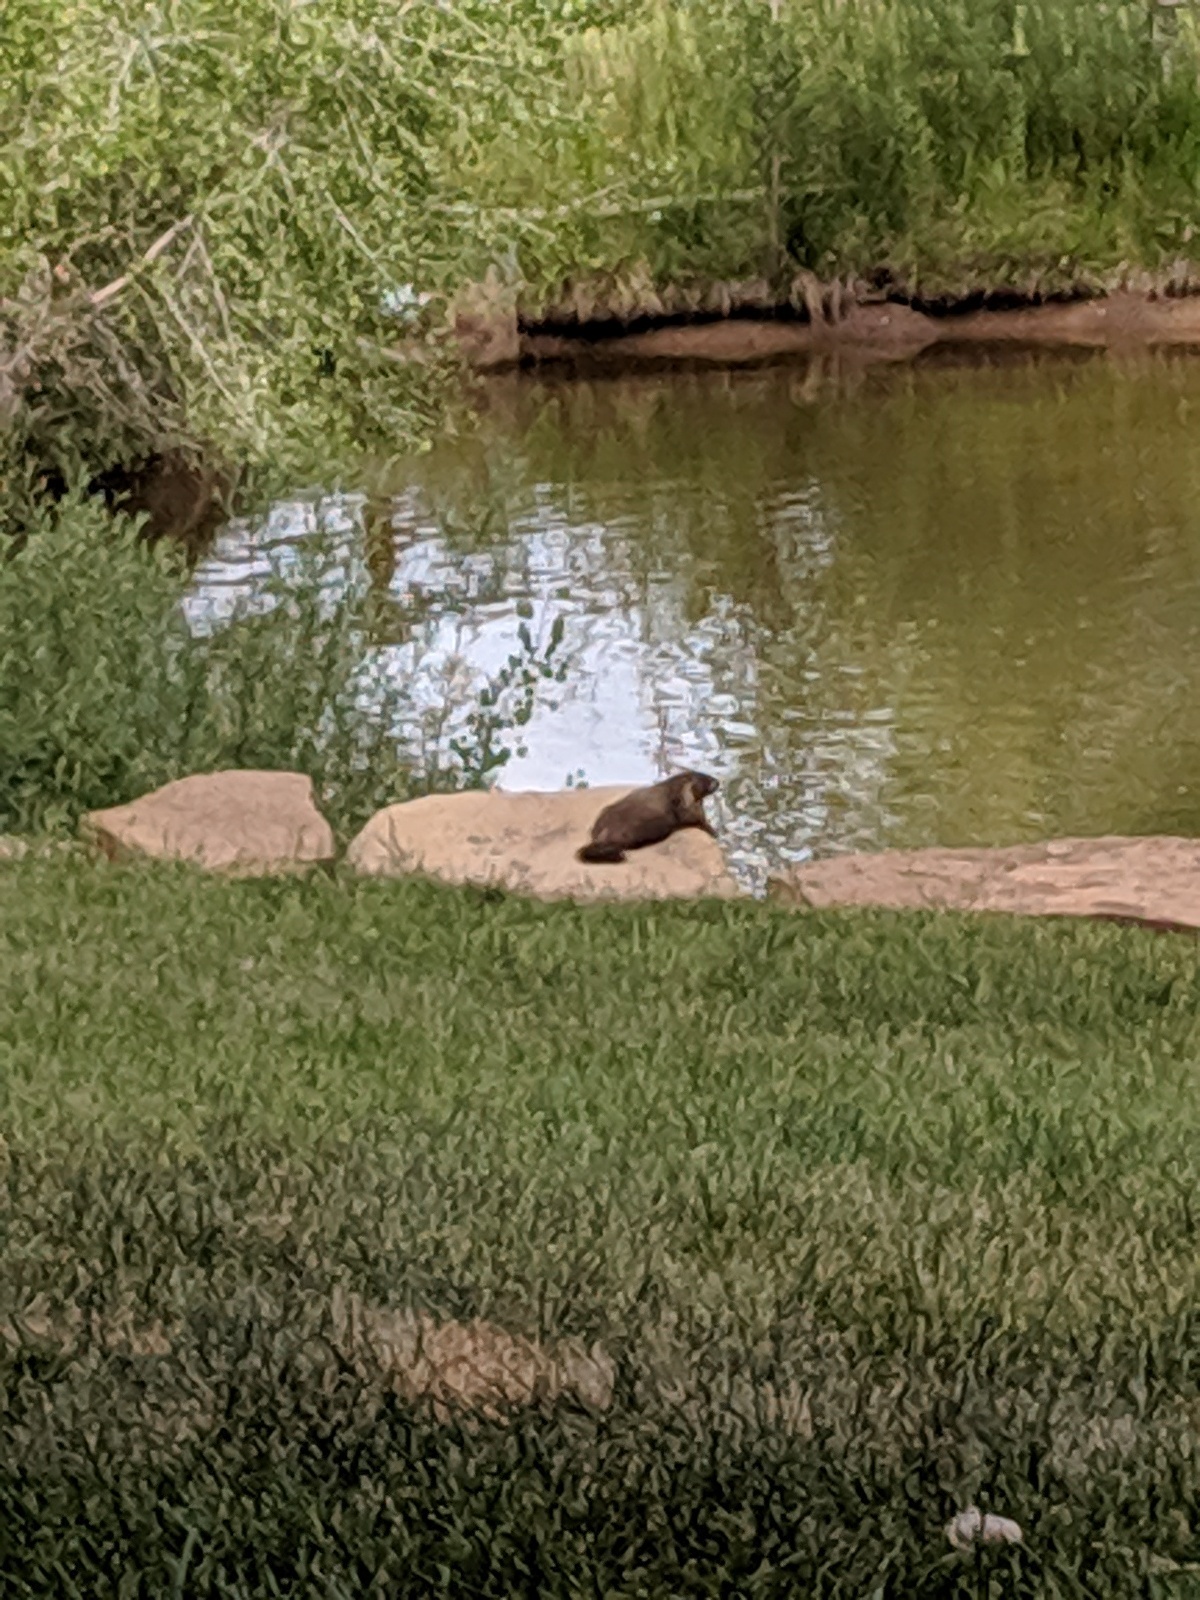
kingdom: Animalia
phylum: Chordata
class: Mammalia
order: Rodentia
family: Sciuridae
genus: Marmota
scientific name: Marmota flaviventris
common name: Yellow-bellied marmot
